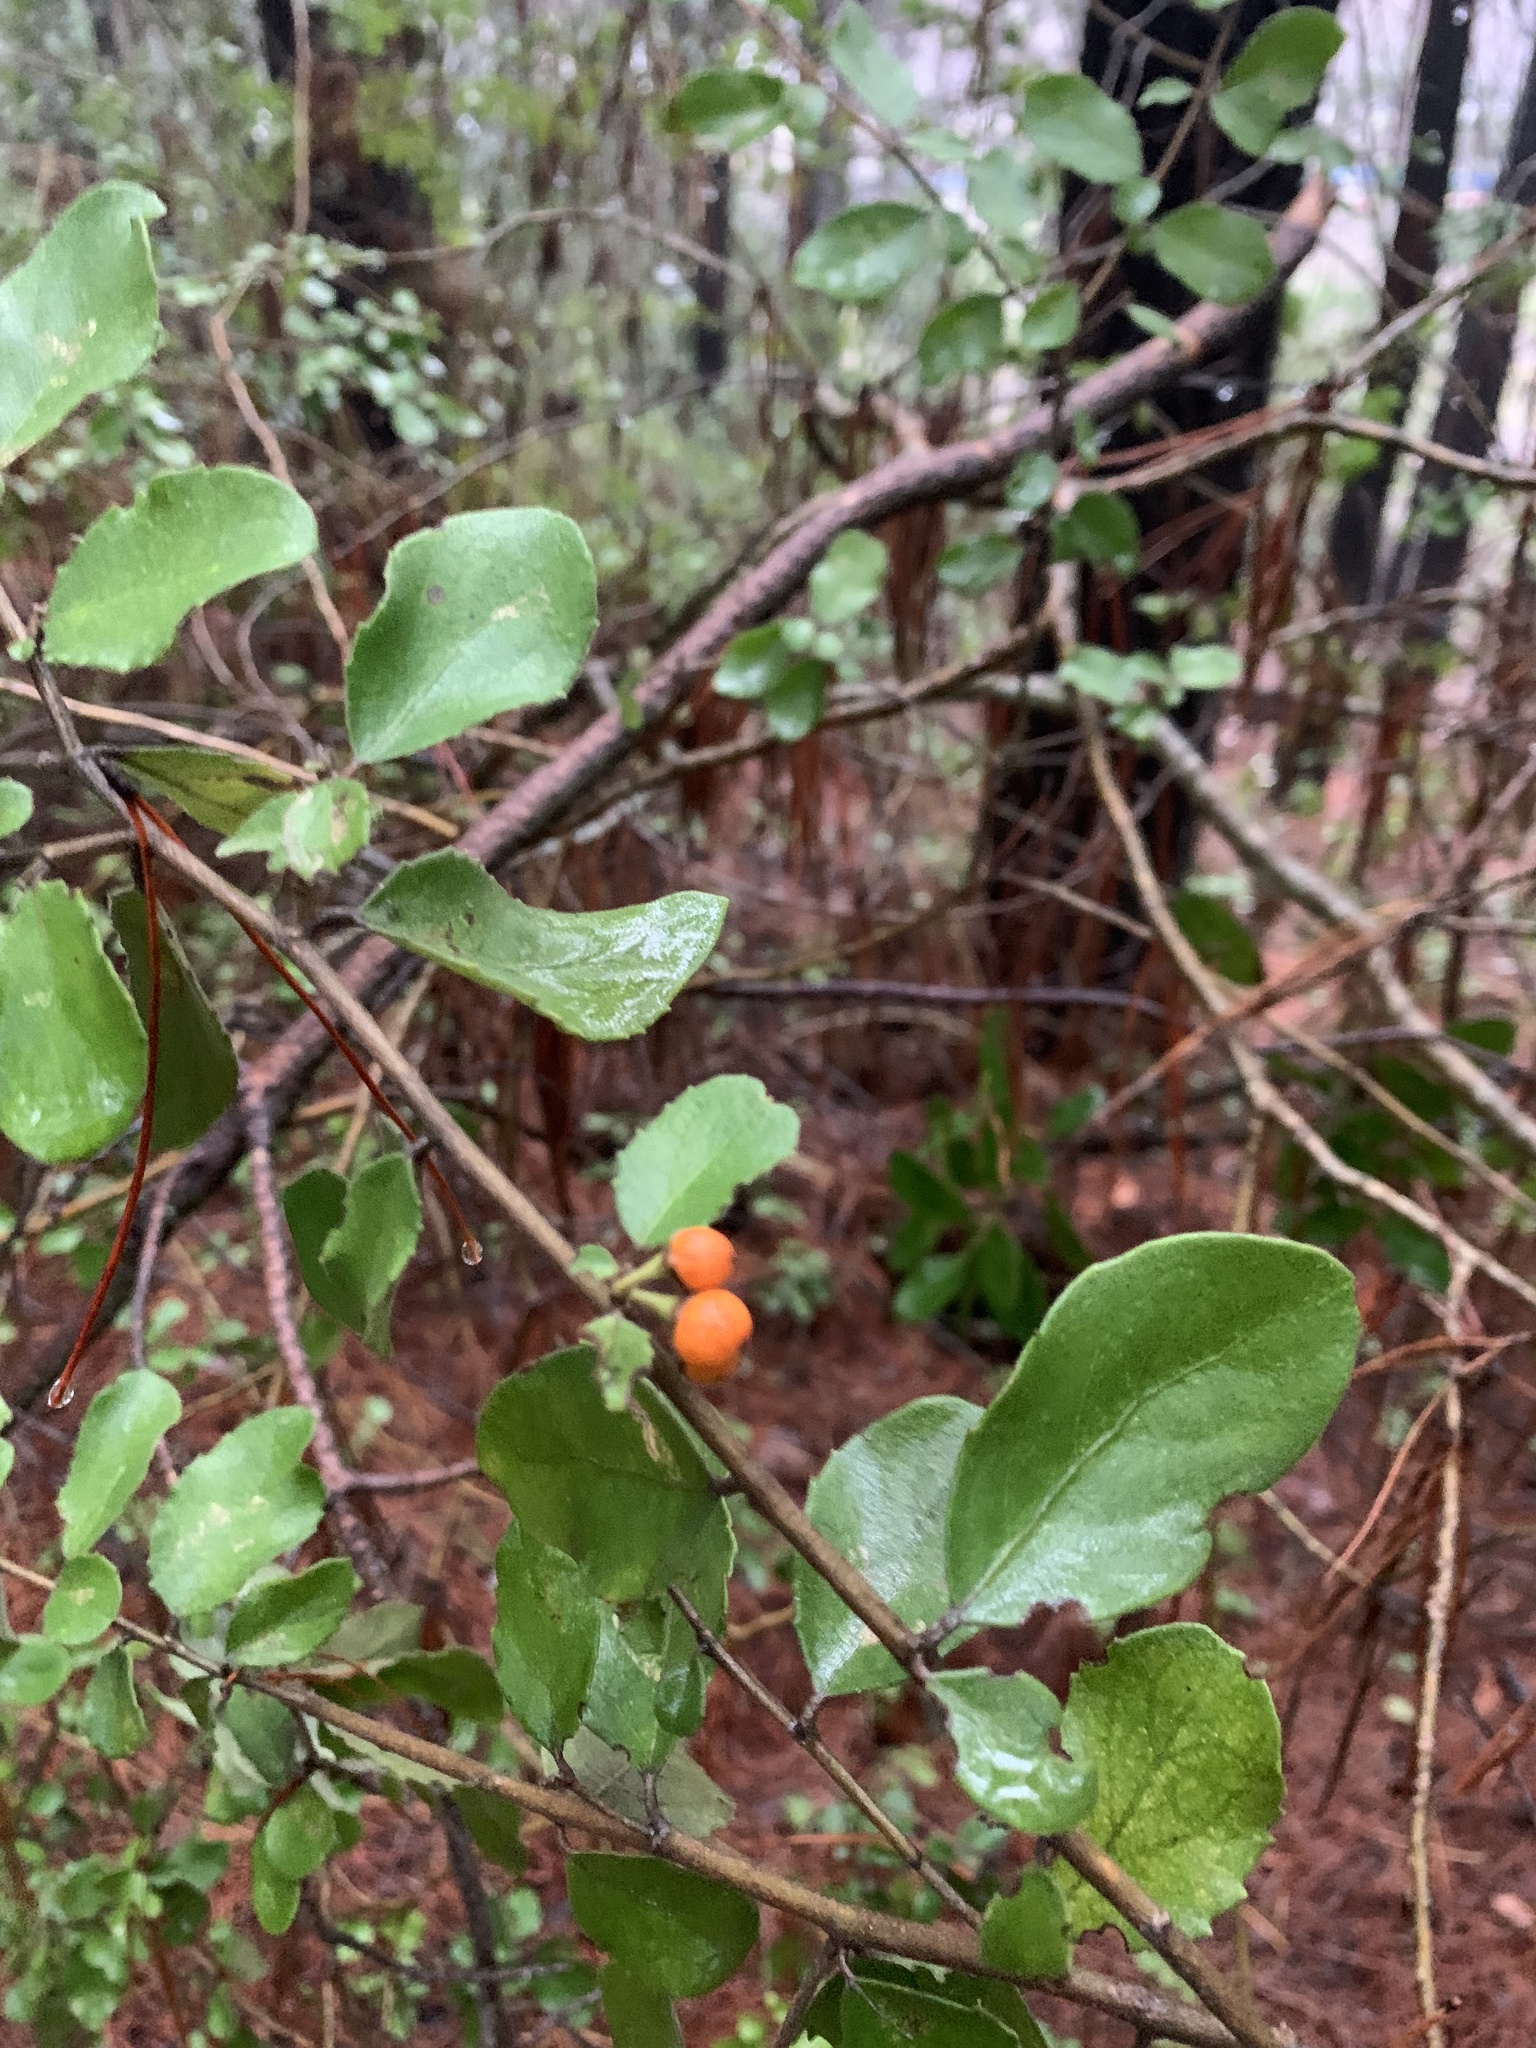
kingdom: Plantae
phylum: Tracheophyta
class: Magnoliopsida
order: Malpighiales
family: Salicaceae
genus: Azara
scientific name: Azara dentata
